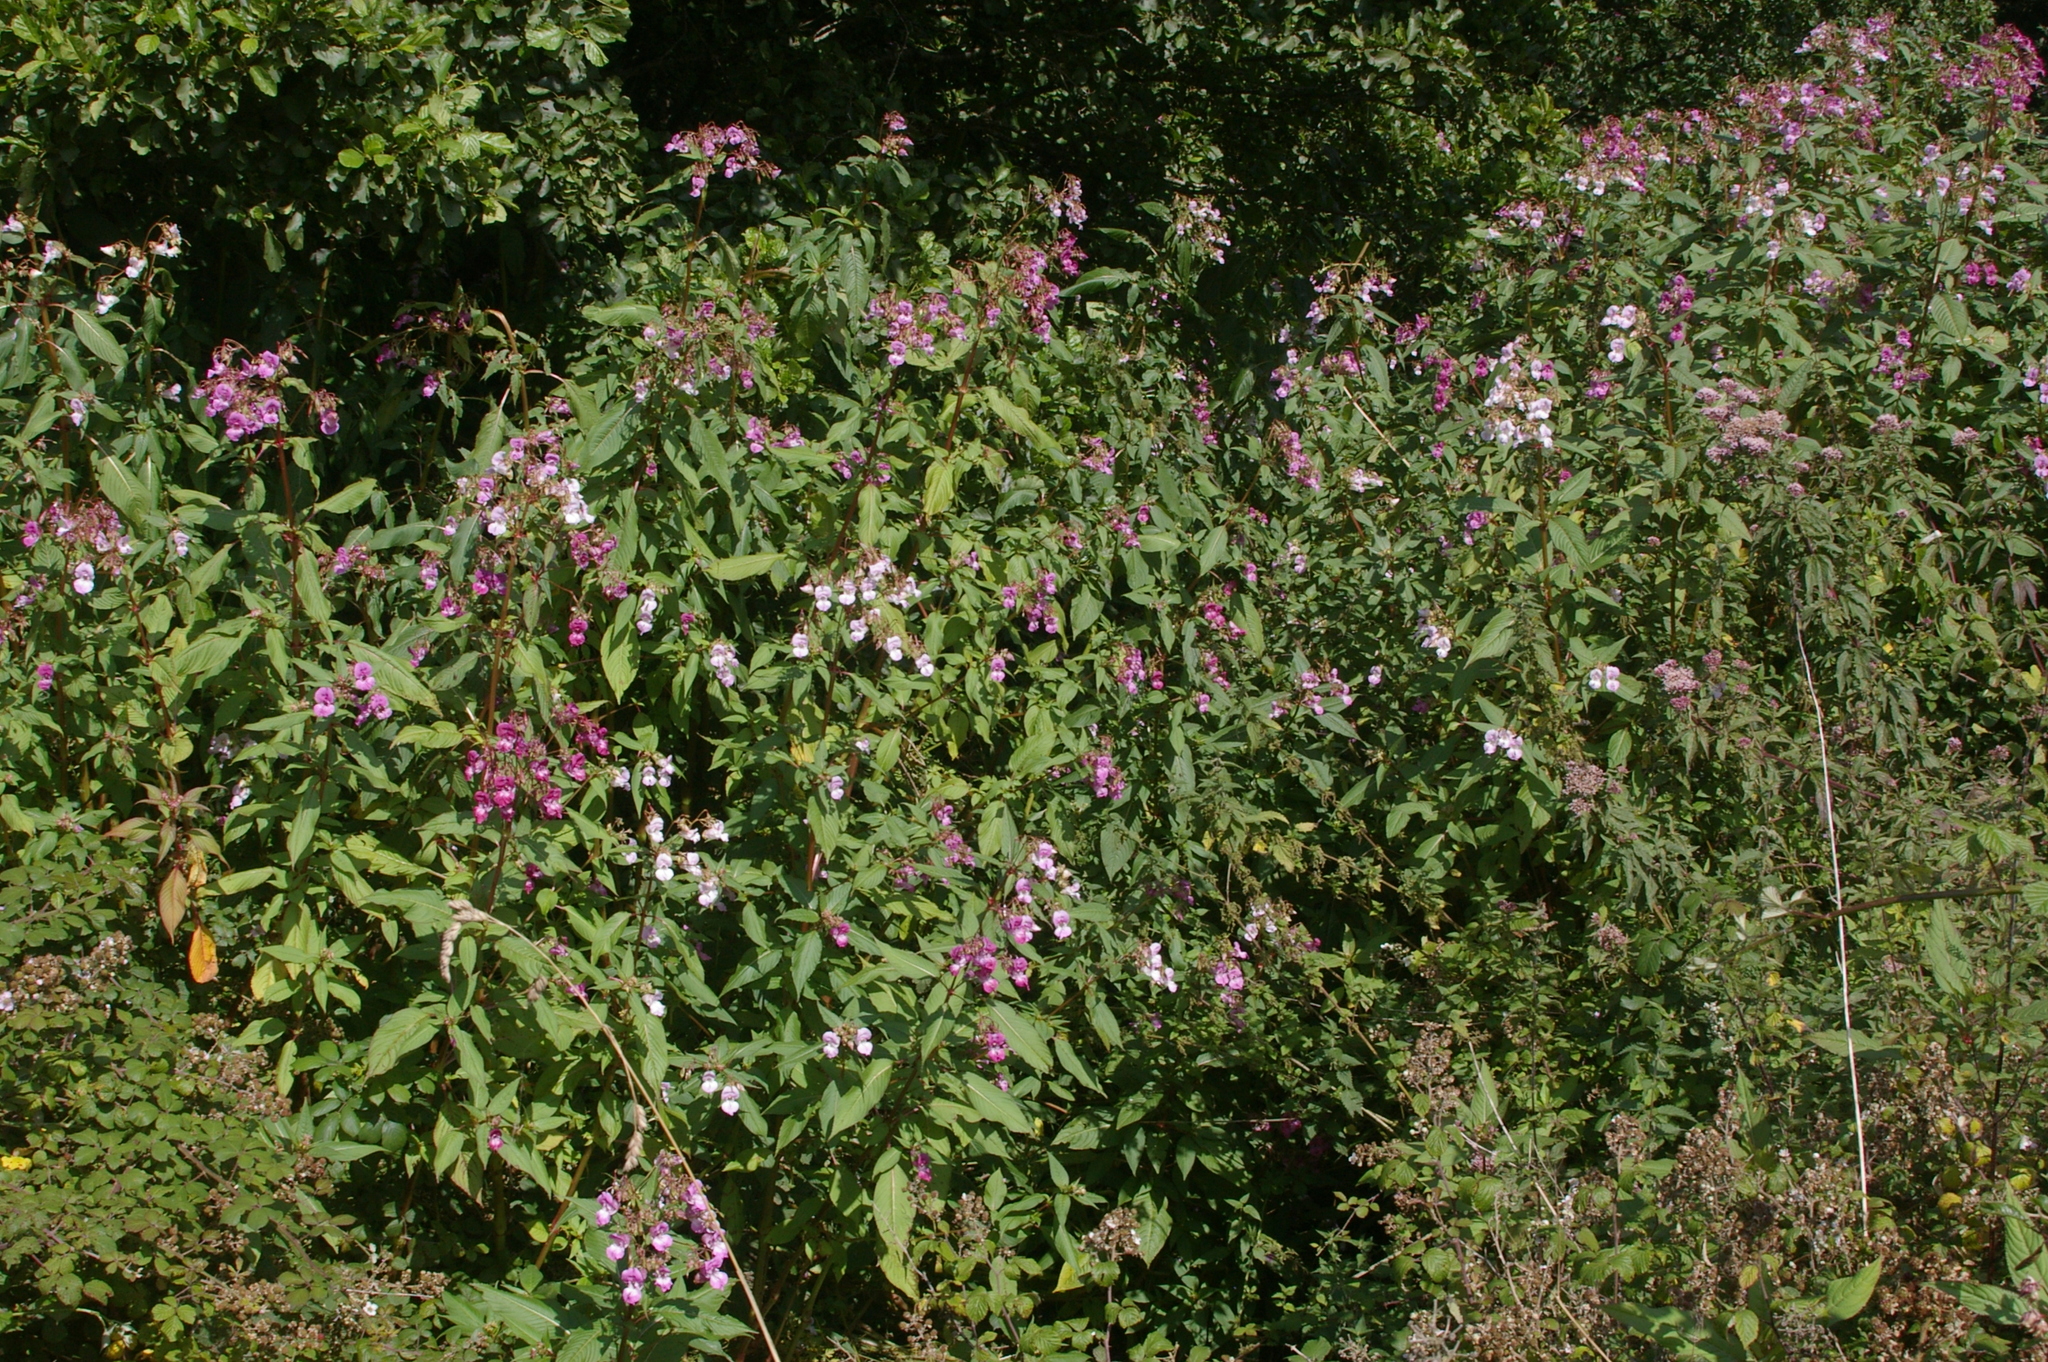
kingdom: Plantae
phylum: Tracheophyta
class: Magnoliopsida
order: Ericales
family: Balsaminaceae
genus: Impatiens
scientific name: Impatiens glandulifera
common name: Himalayan balsam
